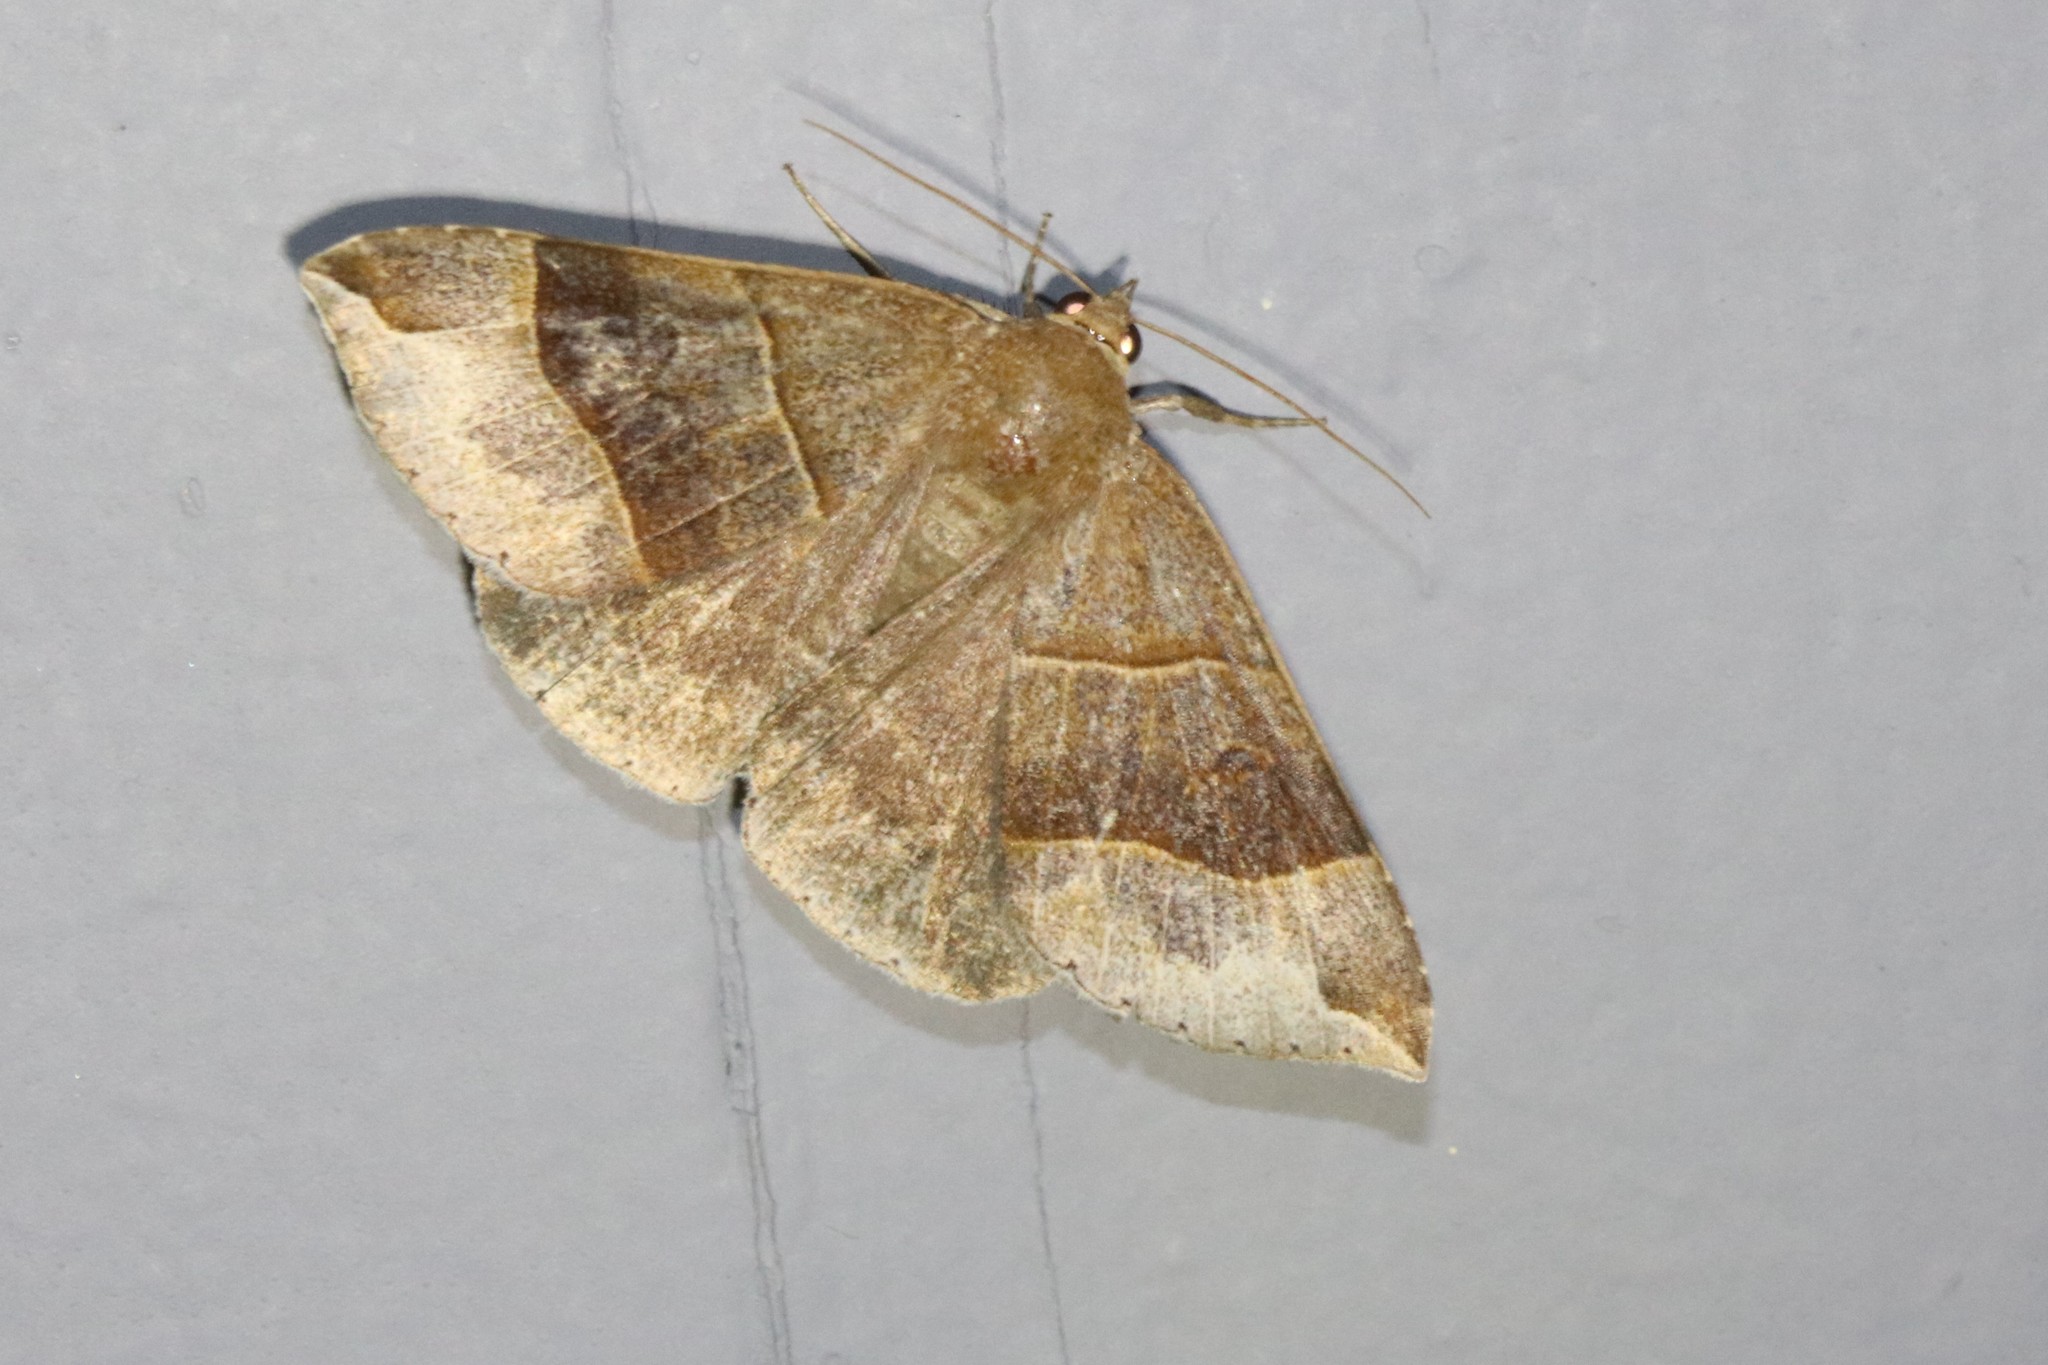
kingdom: Animalia
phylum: Arthropoda
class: Insecta
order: Lepidoptera
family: Erebidae
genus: Parallelia
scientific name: Parallelia bistriaris
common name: Maple looper moth
